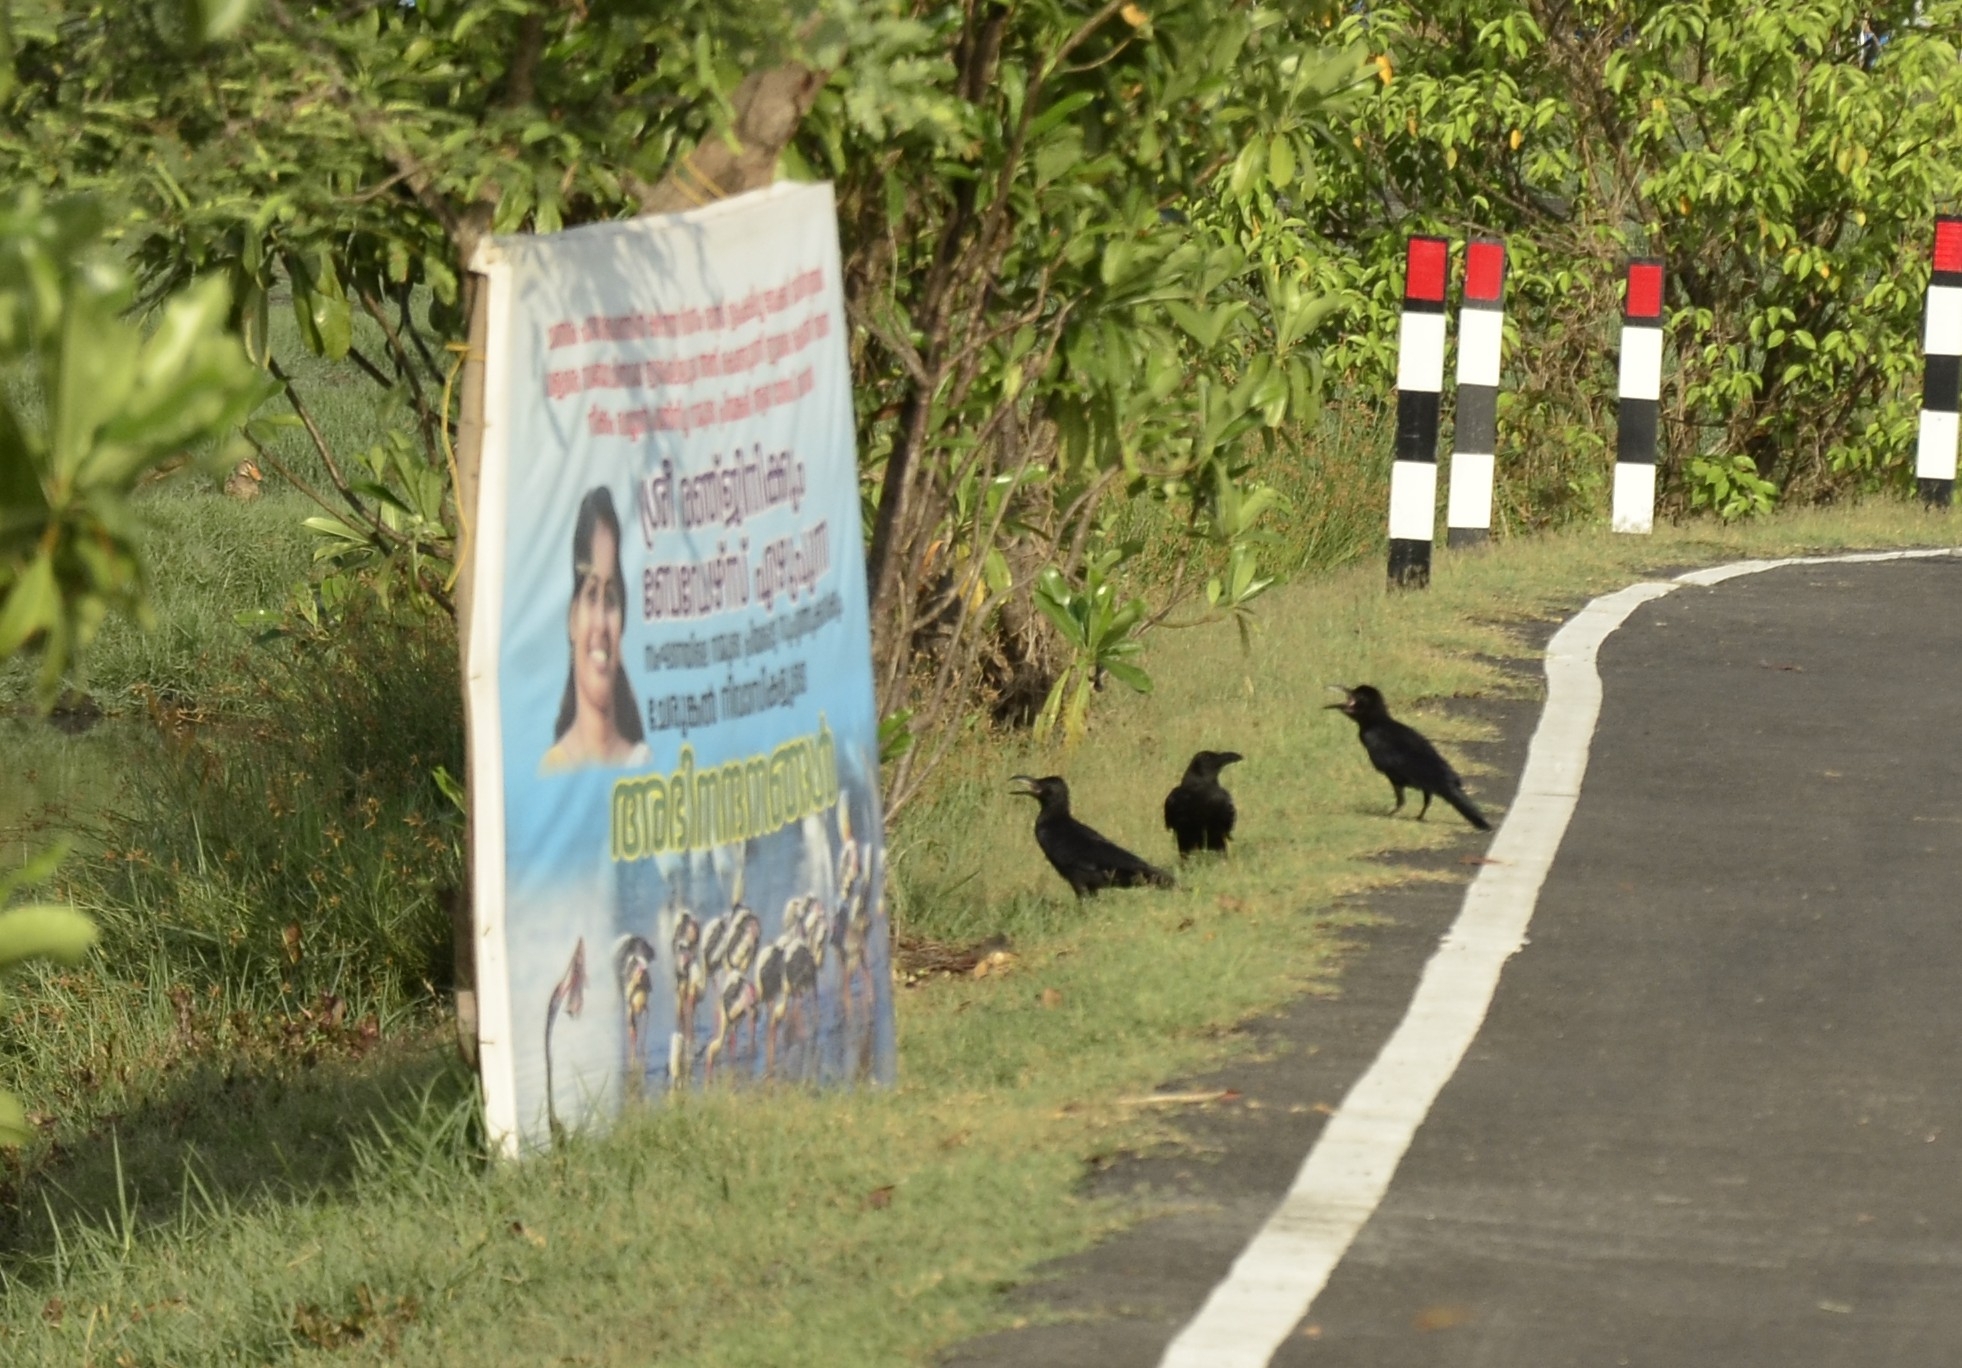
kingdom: Animalia
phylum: Chordata
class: Aves
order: Passeriformes
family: Corvidae
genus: Corvus
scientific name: Corvus macrorhynchos
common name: Large-billed crow
